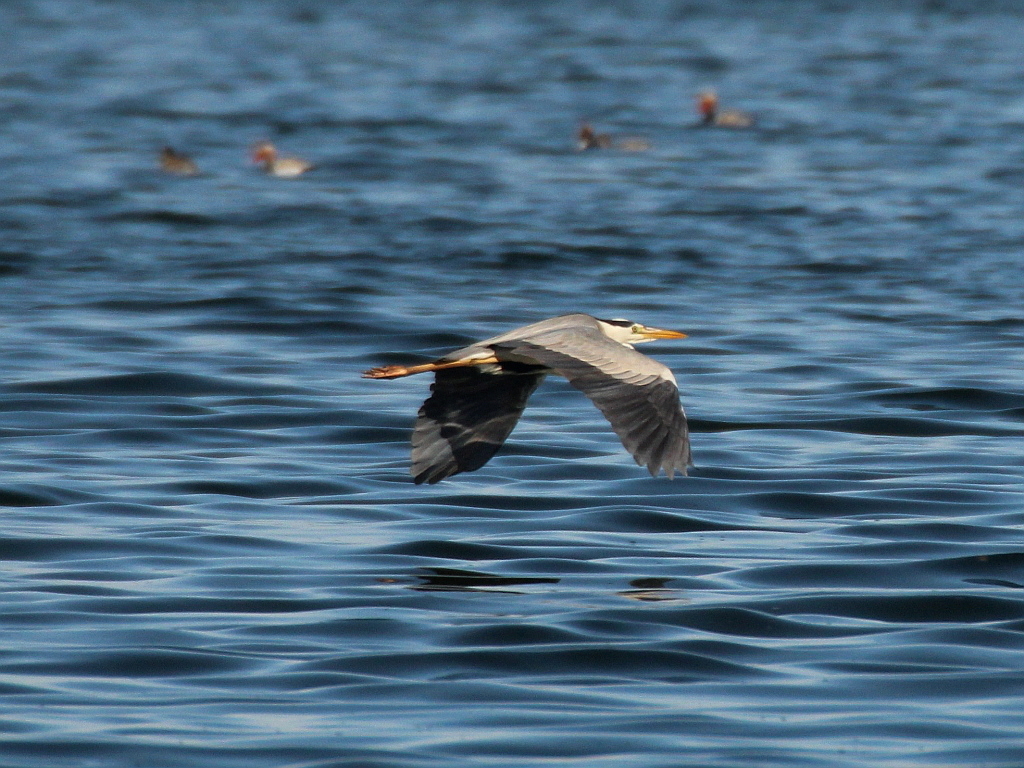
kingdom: Animalia
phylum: Chordata
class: Aves
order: Pelecaniformes
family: Ardeidae
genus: Ardea
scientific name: Ardea cinerea
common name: Grey heron
